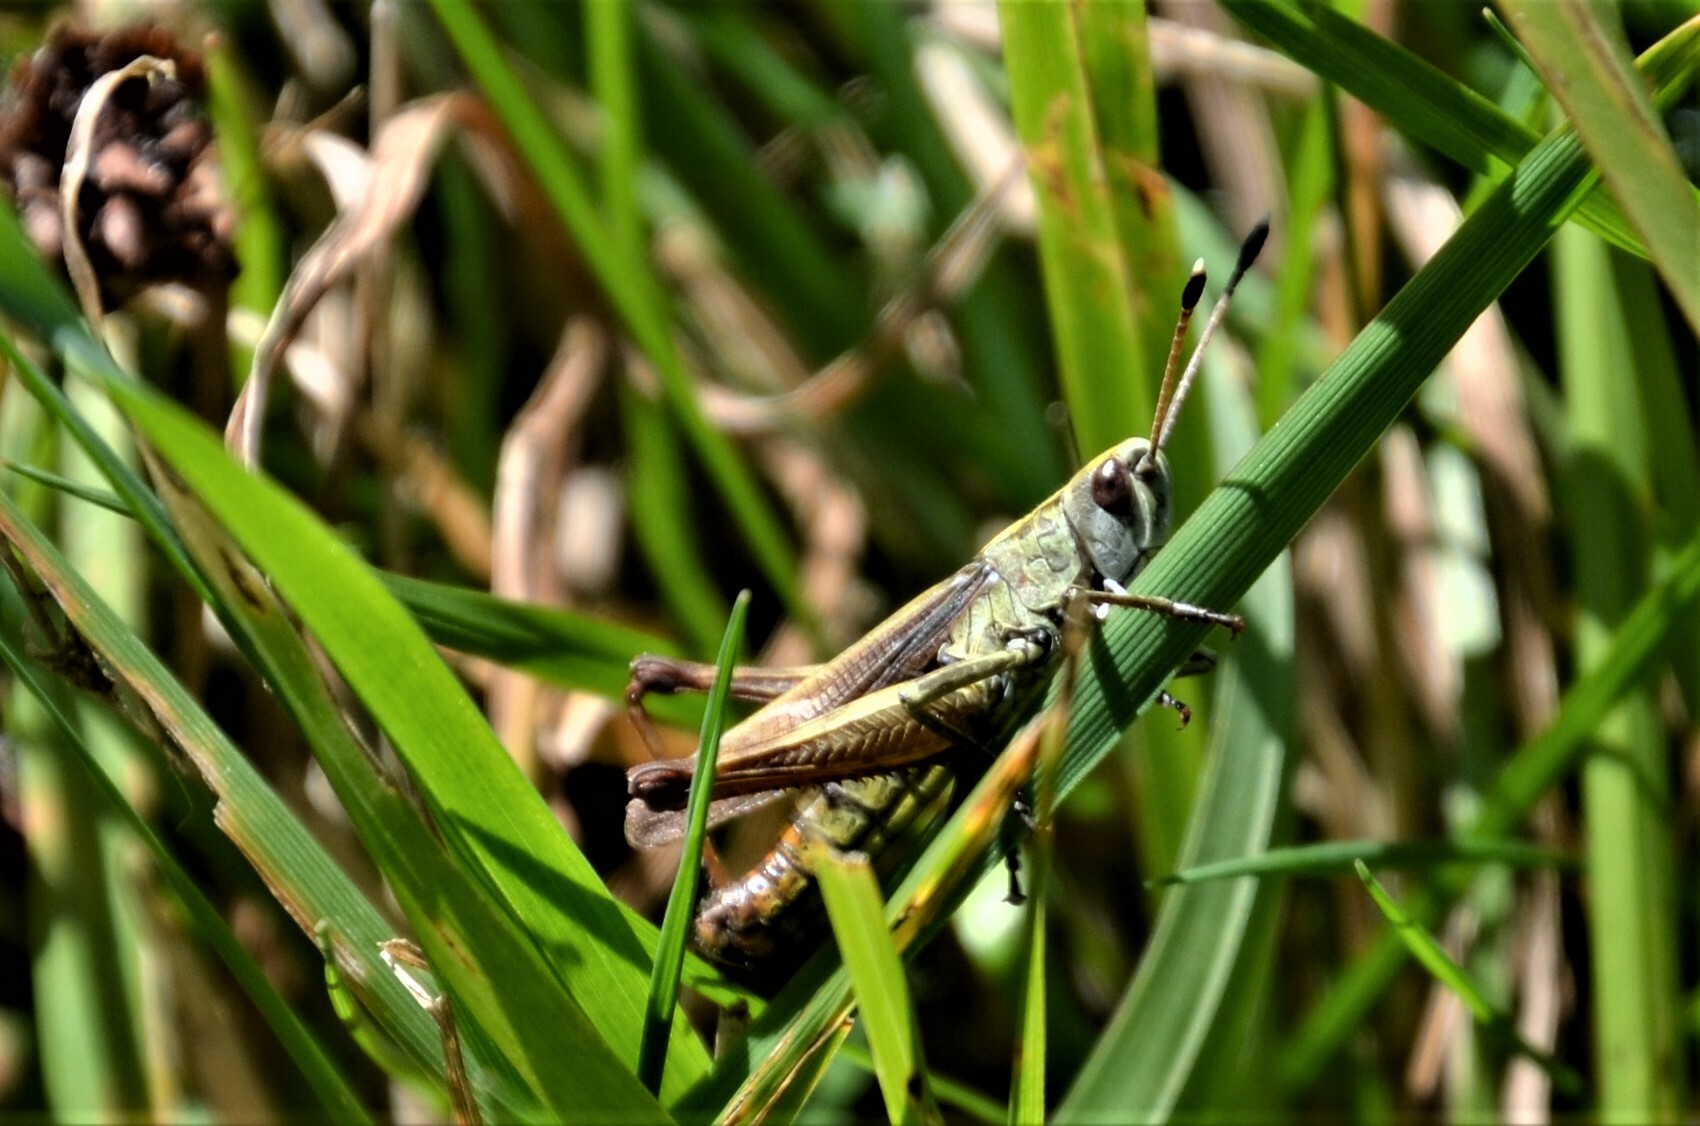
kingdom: Animalia
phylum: Arthropoda
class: Insecta
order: Orthoptera
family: Acrididae
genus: Gomphocerippus
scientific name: Gomphocerippus rufus
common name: Rufous grasshopper
